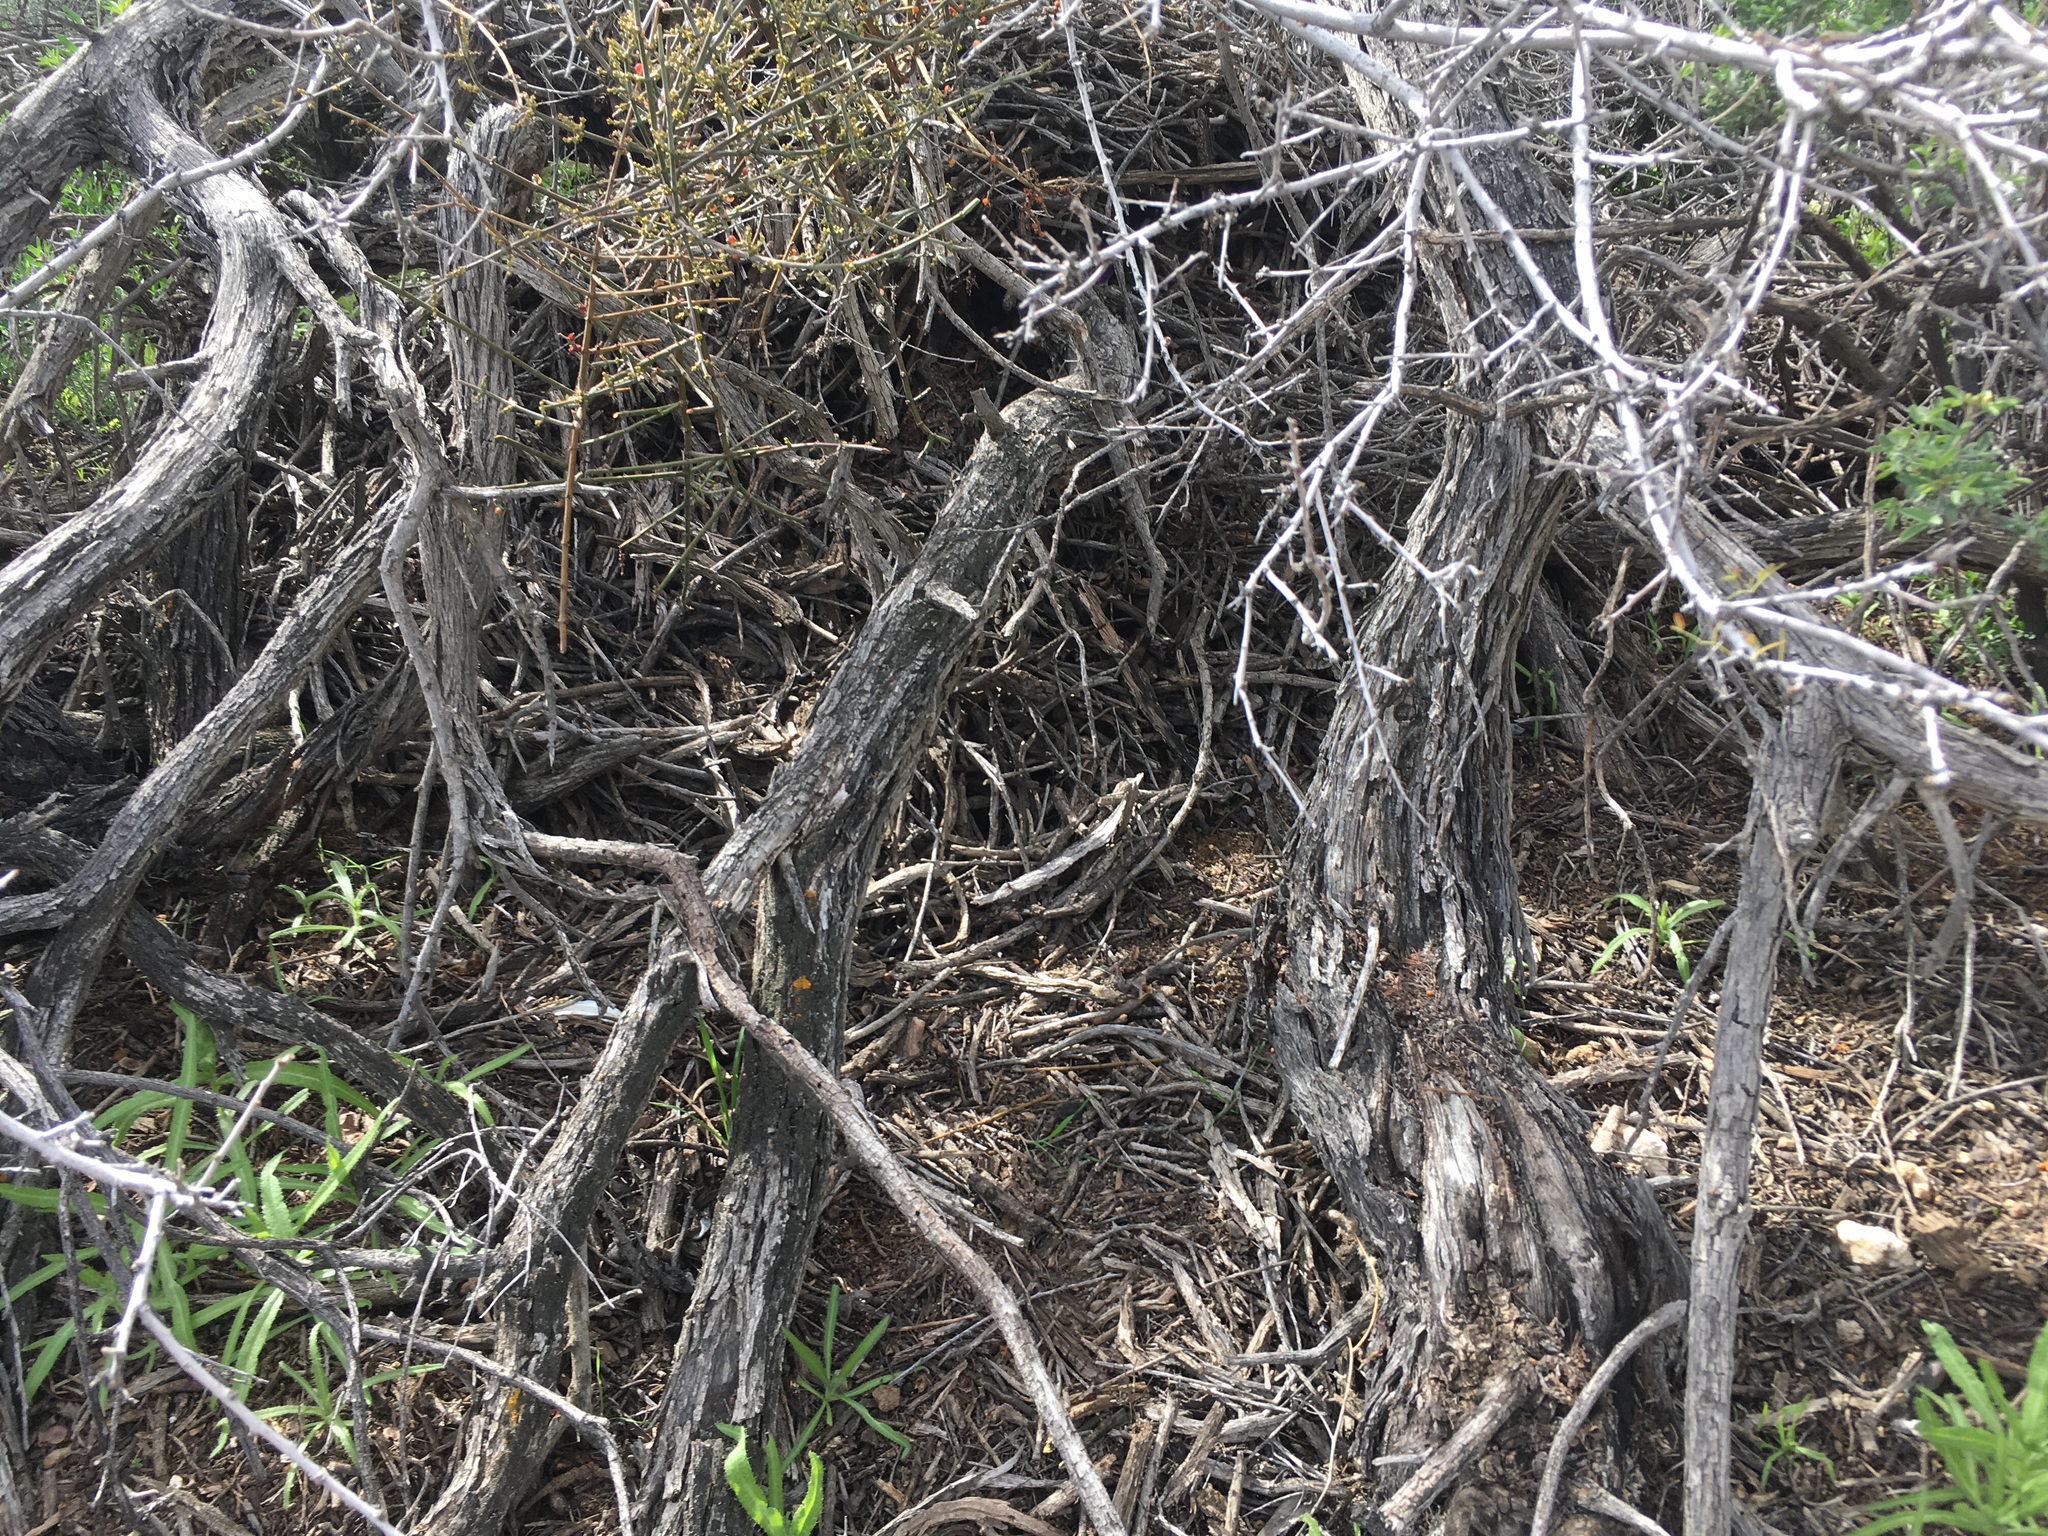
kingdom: Animalia
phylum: Chordata
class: Mammalia
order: Rodentia
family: Cricetidae
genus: Neotoma
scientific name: Neotoma macrotis
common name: Big-eared woodrat
